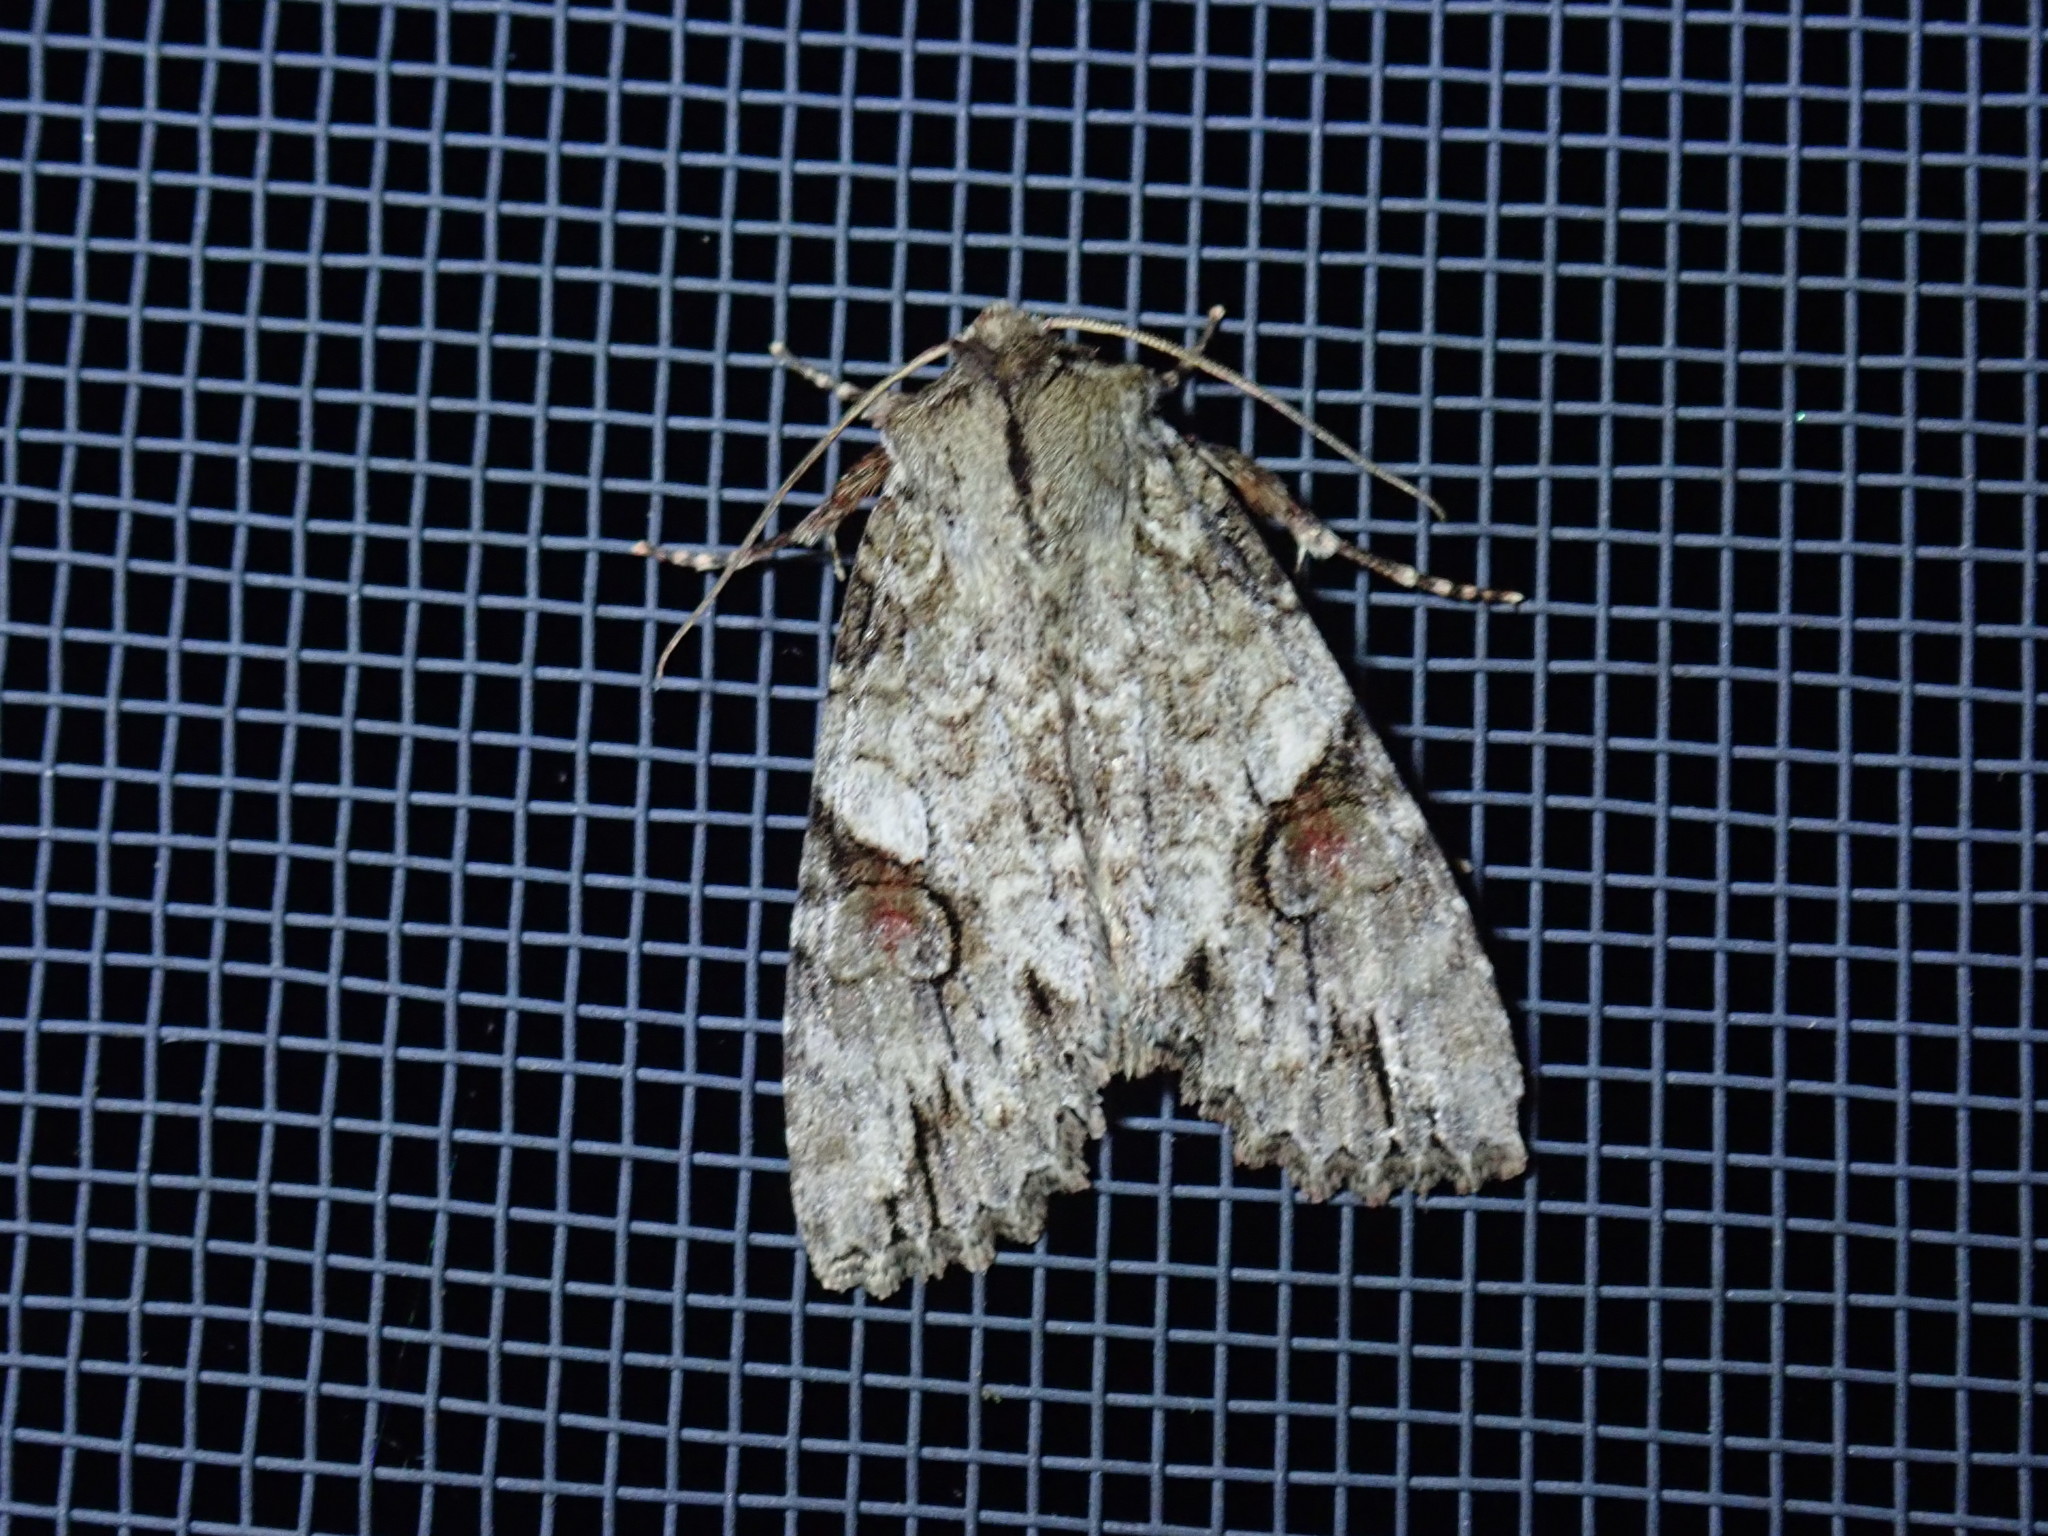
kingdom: Animalia
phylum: Arthropoda
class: Insecta
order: Lepidoptera
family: Noctuidae
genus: Achatia
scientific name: Achatia latex
